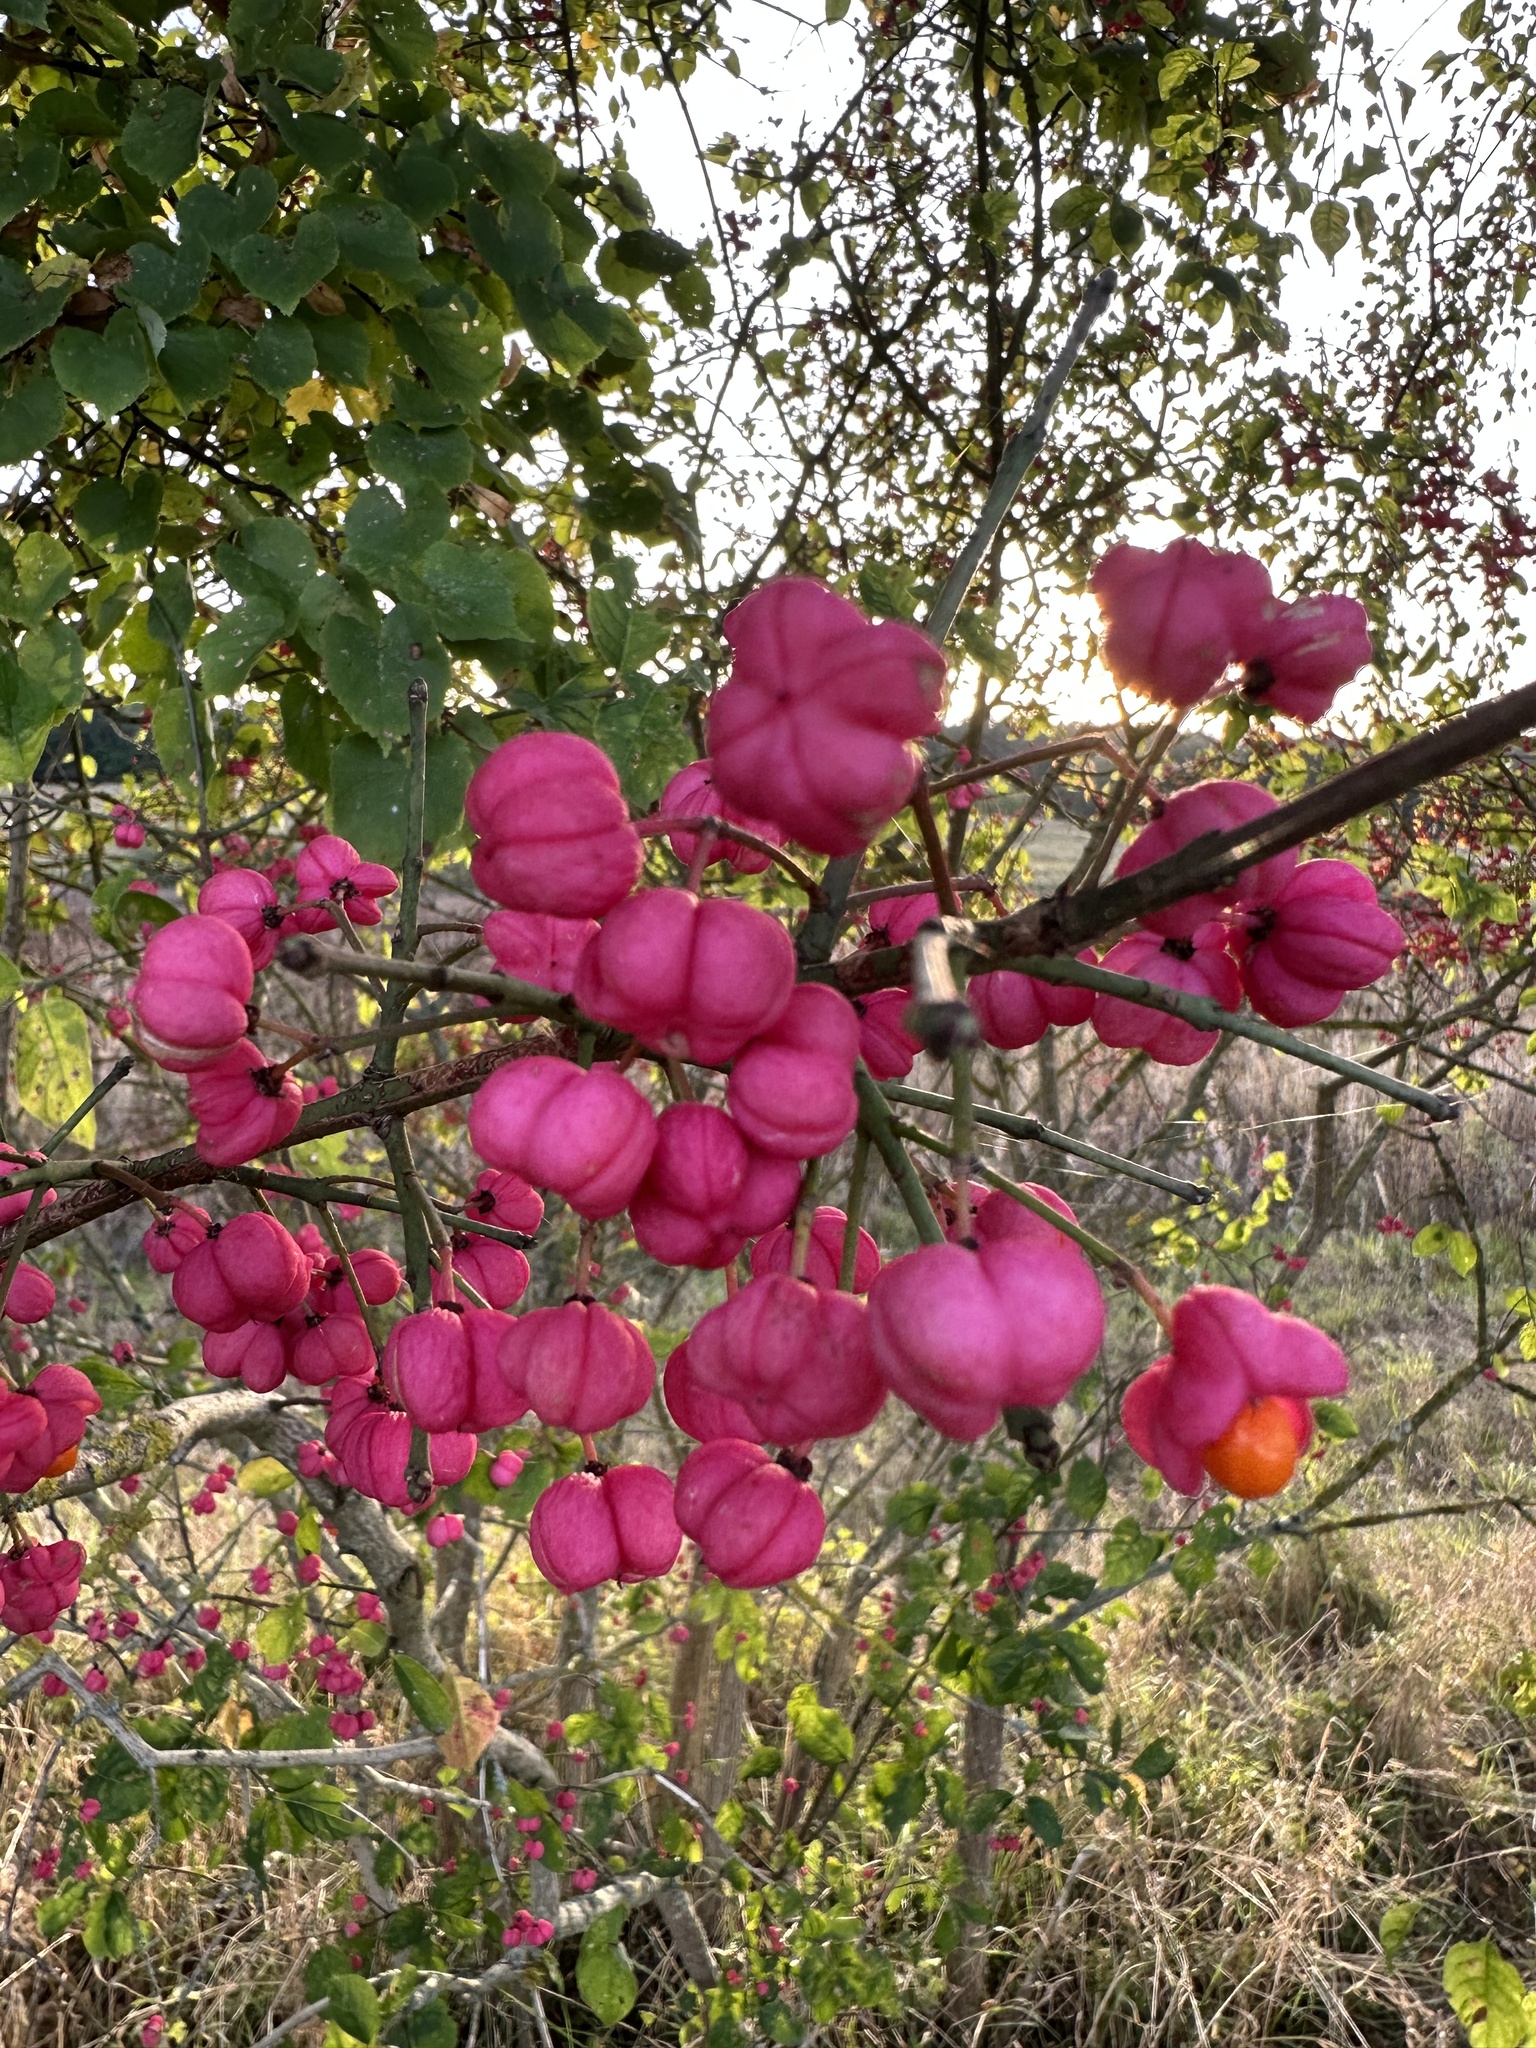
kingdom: Plantae
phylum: Tracheophyta
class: Magnoliopsida
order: Celastrales
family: Celastraceae
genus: Euonymus
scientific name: Euonymus europaeus
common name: Spindle
